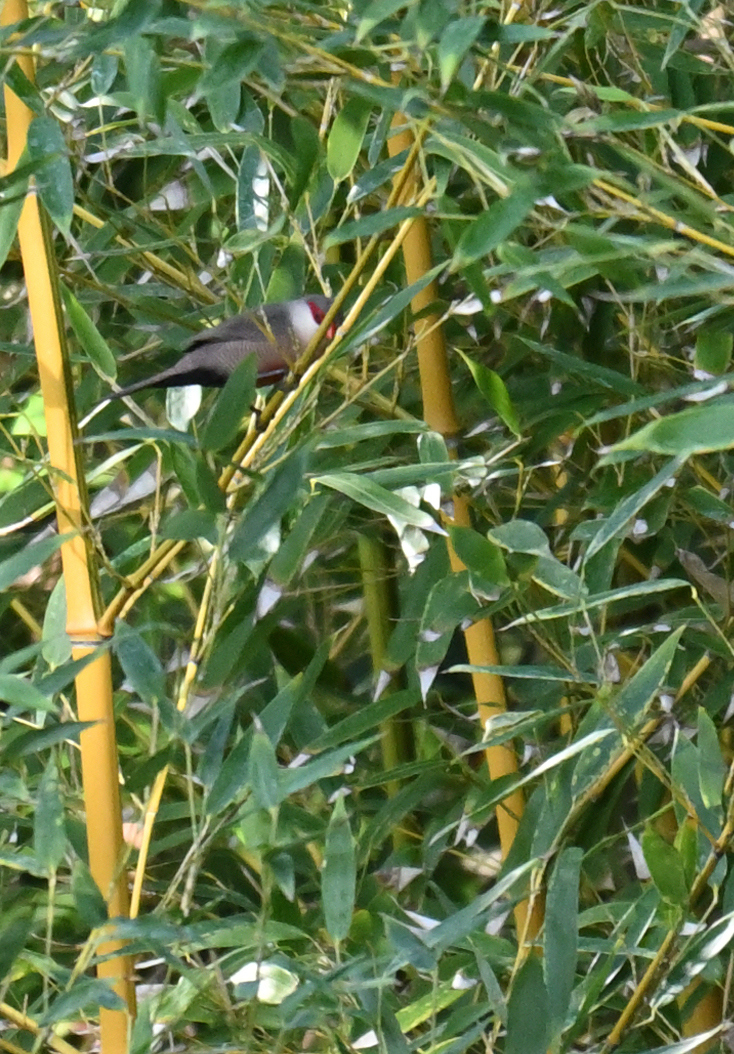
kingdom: Animalia
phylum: Chordata
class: Aves
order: Passeriformes
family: Estrildidae
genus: Estrilda
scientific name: Estrilda astrild
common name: Common waxbill
